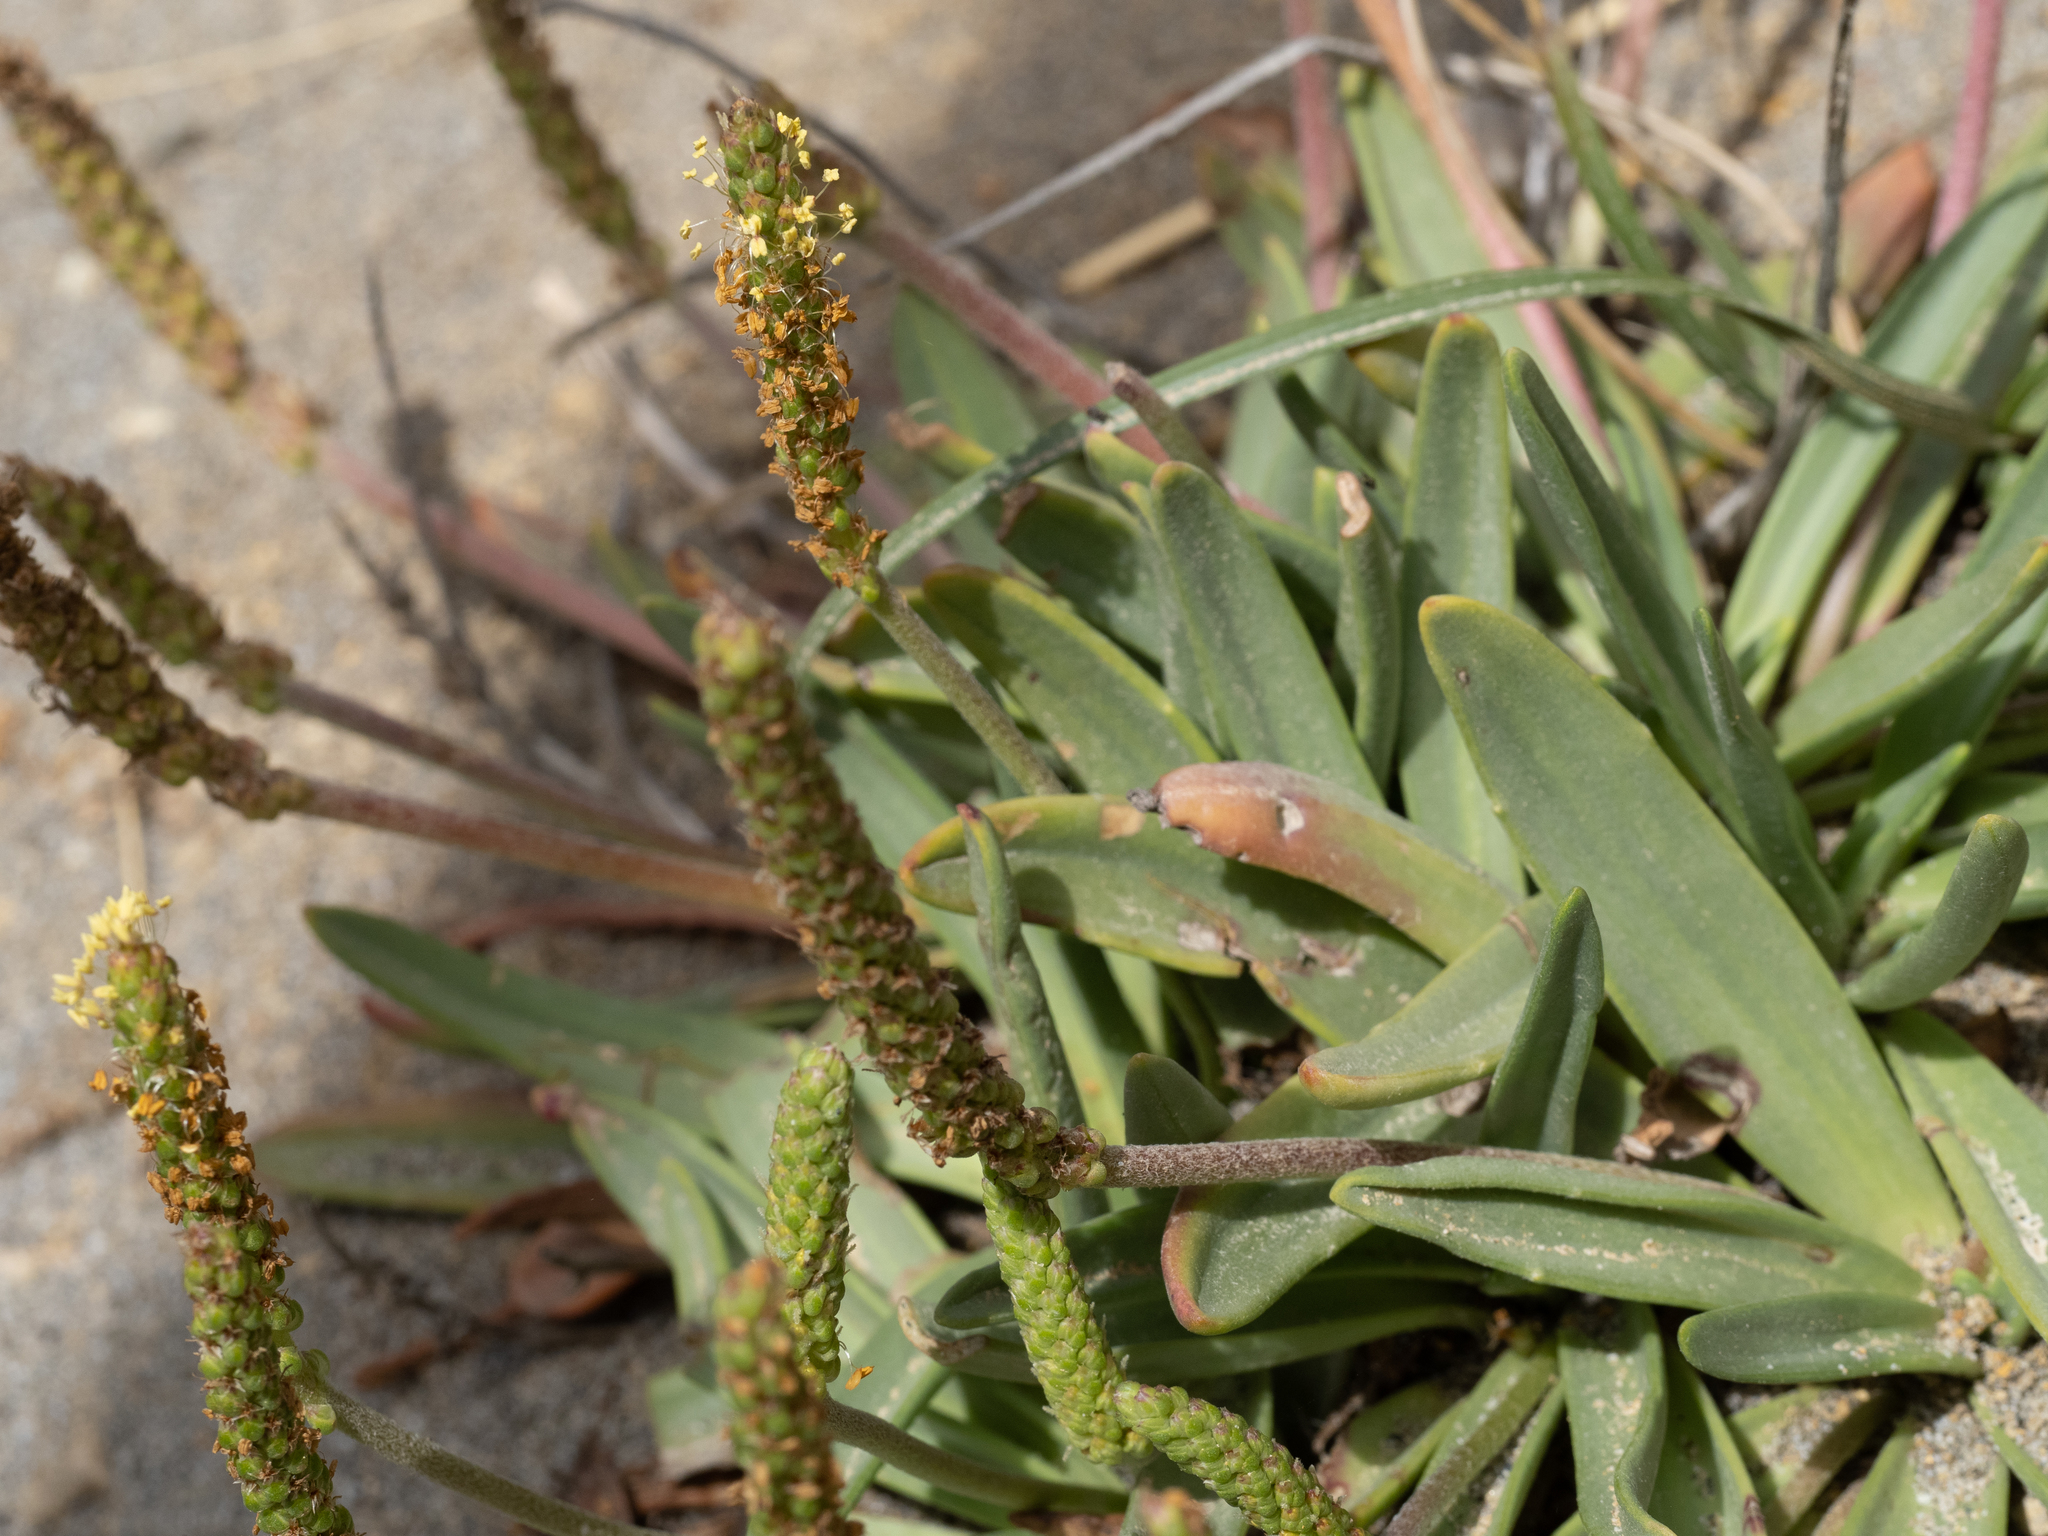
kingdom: Plantae
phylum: Tracheophyta
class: Magnoliopsida
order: Lamiales
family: Plantaginaceae
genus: Plantago
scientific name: Plantago maritima
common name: Sea plantain
